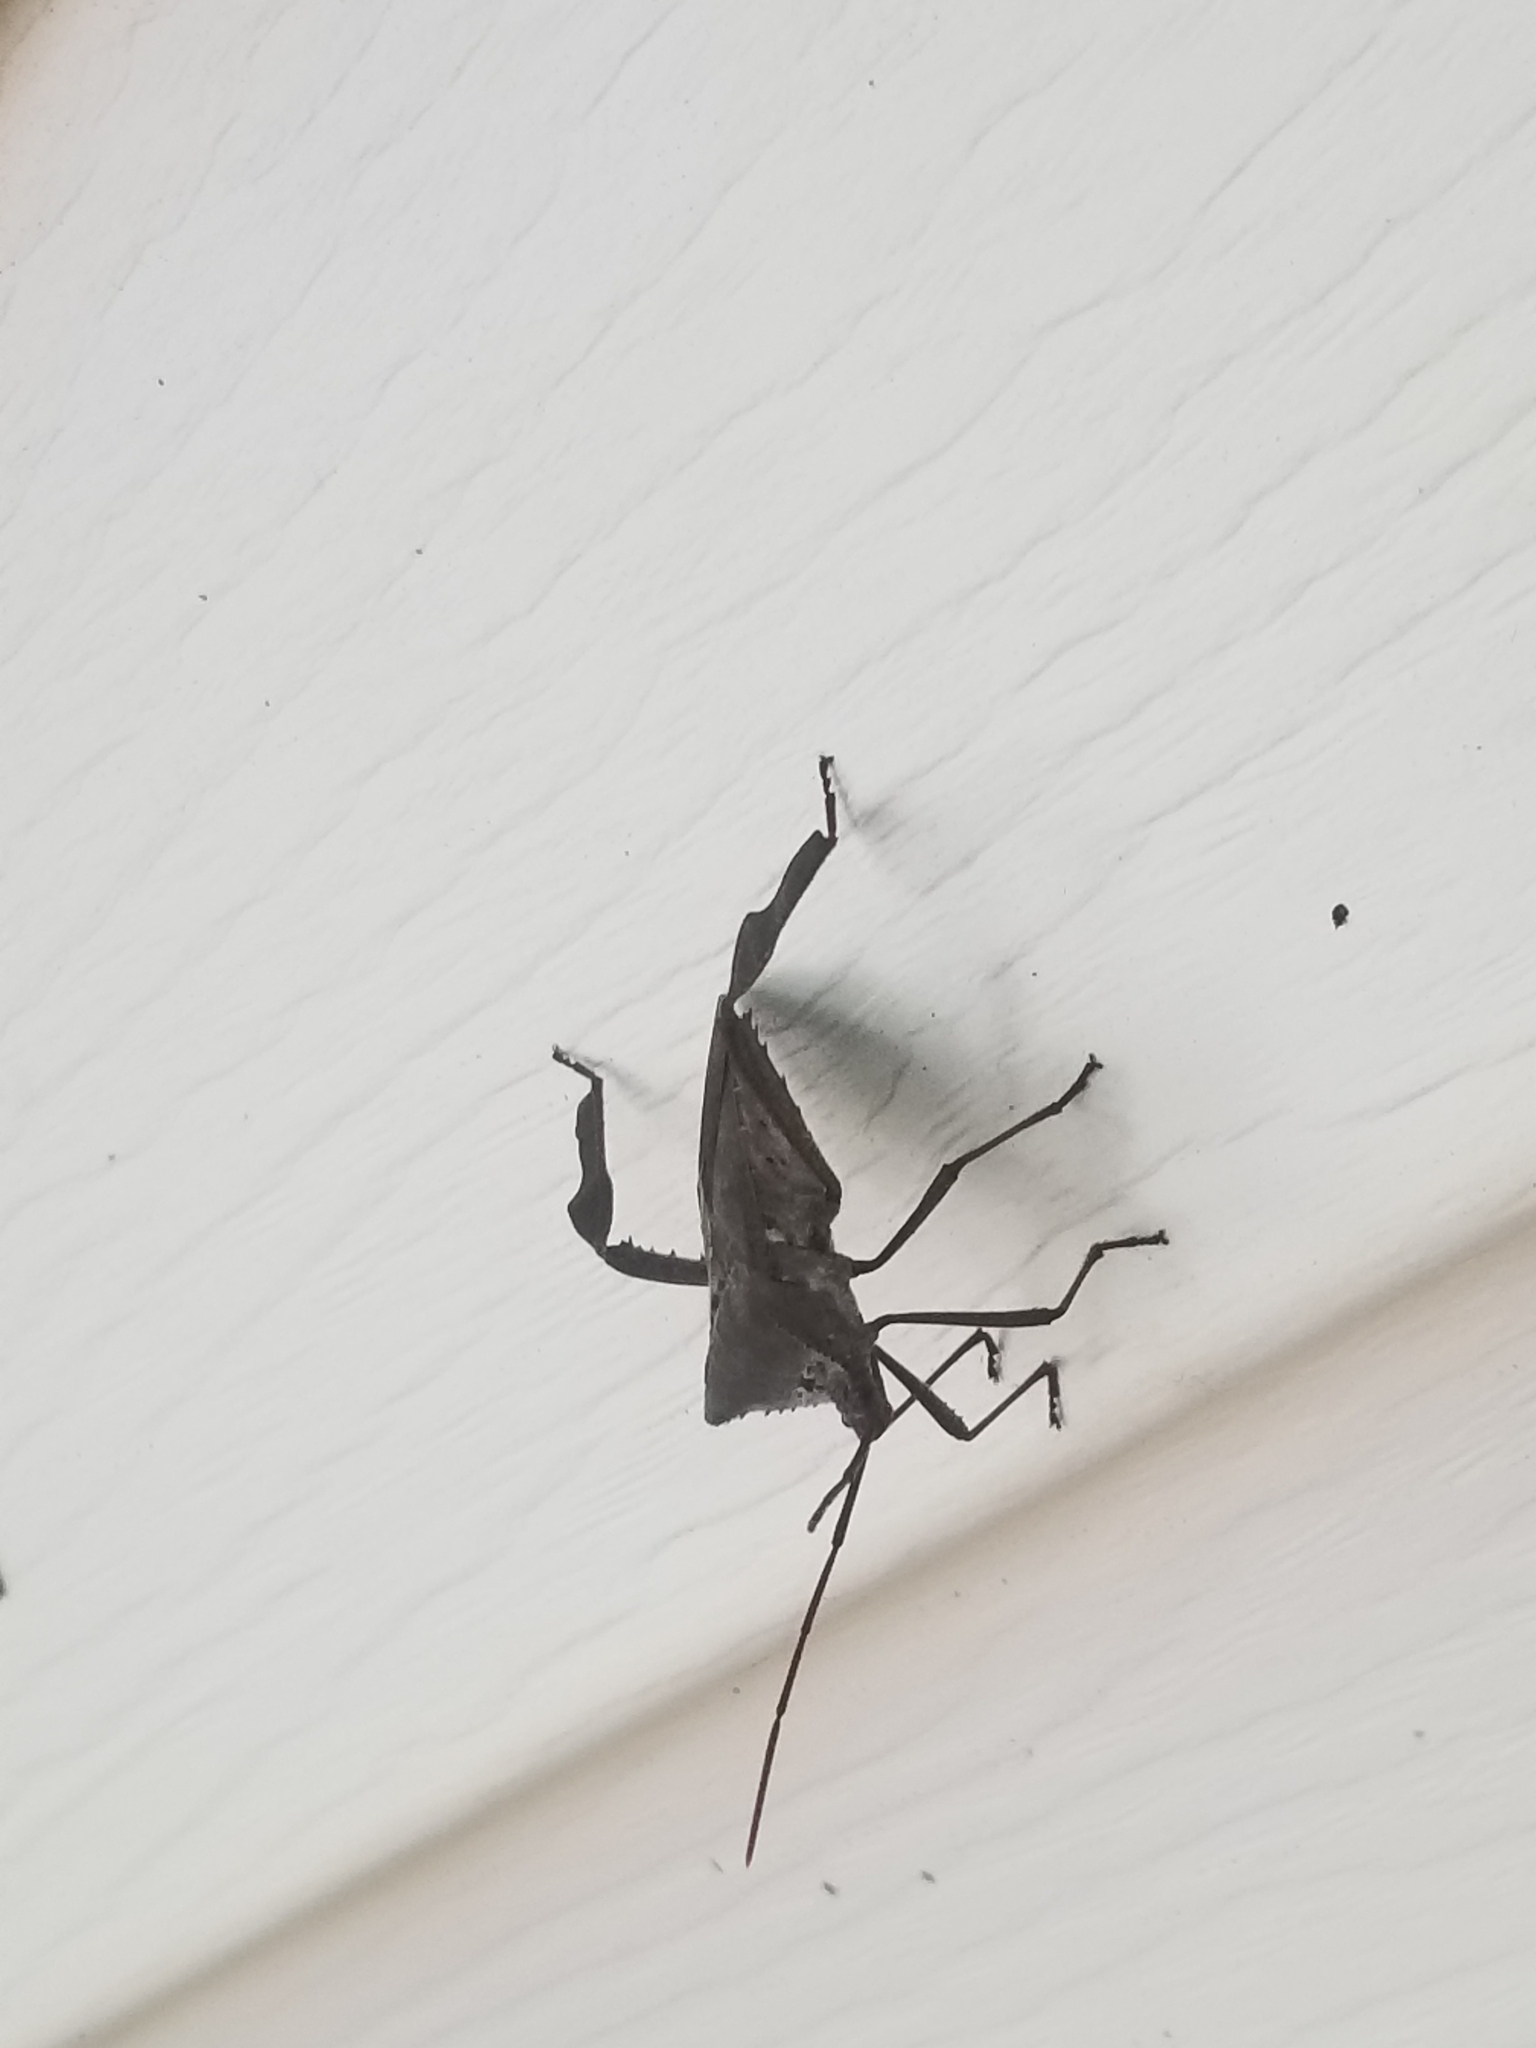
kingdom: Animalia
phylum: Arthropoda
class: Insecta
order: Hemiptera
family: Coreidae
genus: Acanthocephala
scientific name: Acanthocephala declivis
